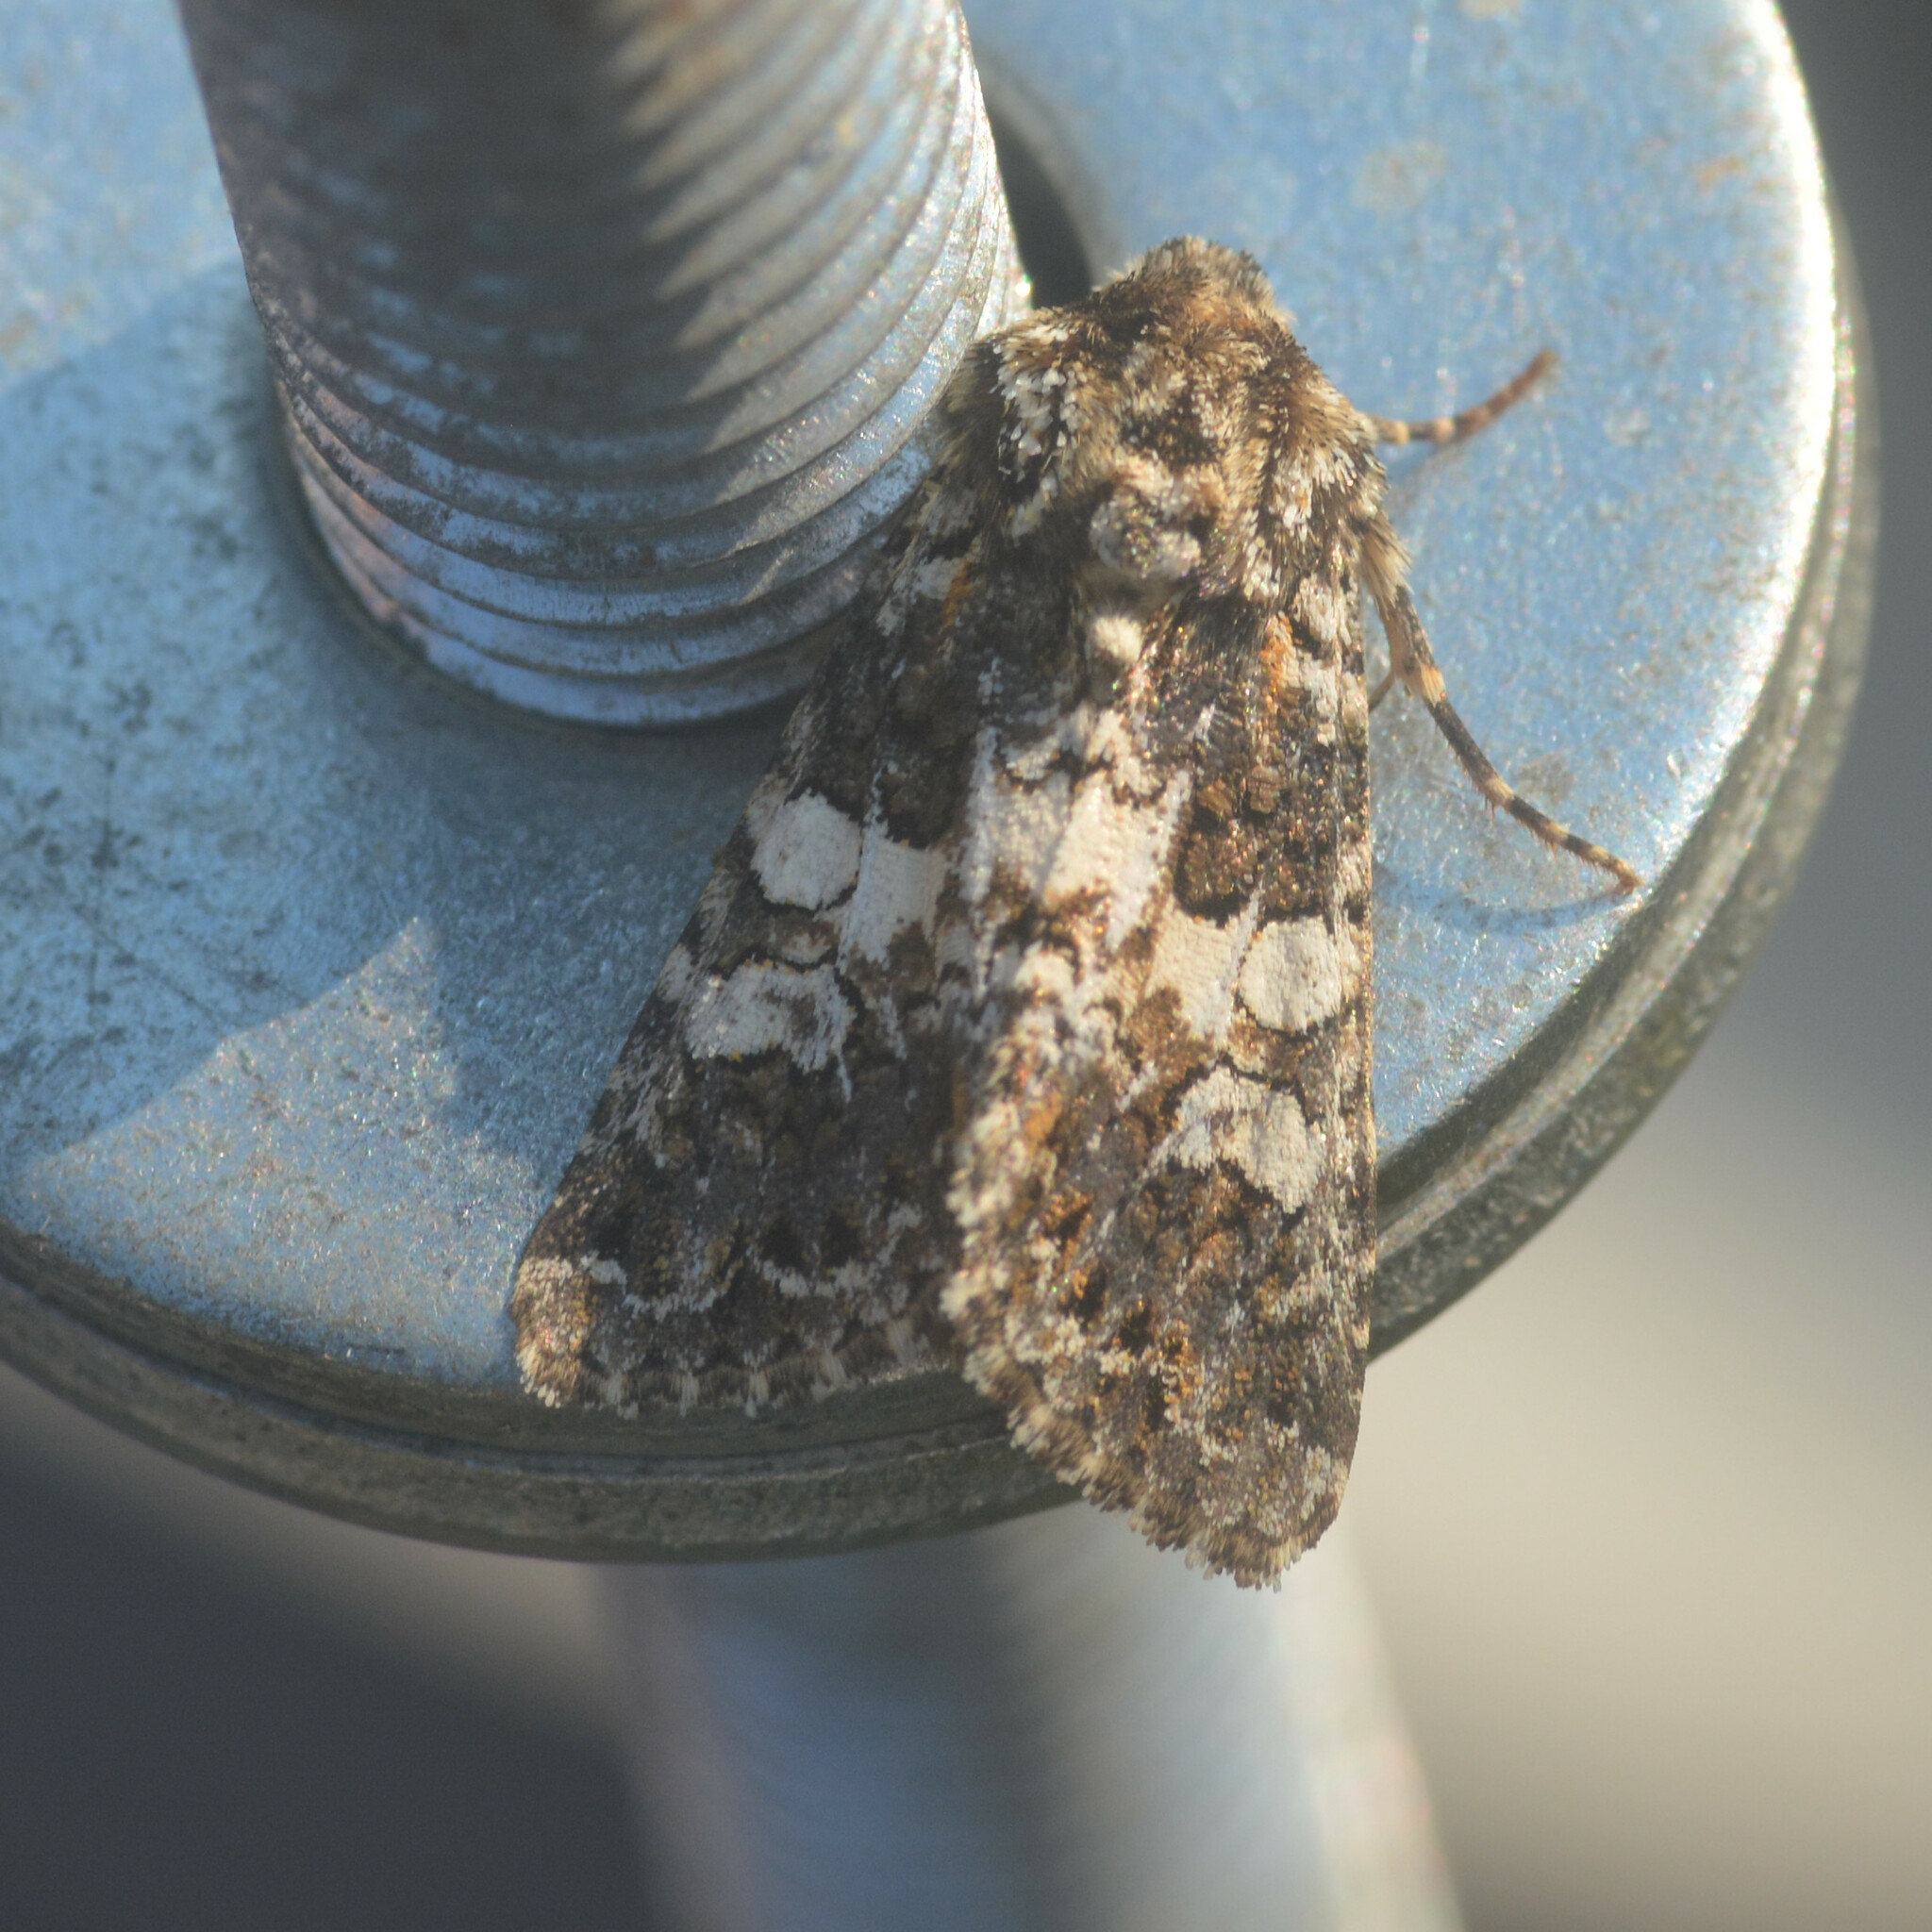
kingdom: Animalia
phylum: Arthropoda
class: Insecta
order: Lepidoptera
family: Noctuidae
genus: Hadena
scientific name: Hadena compta
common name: Varied coronet
